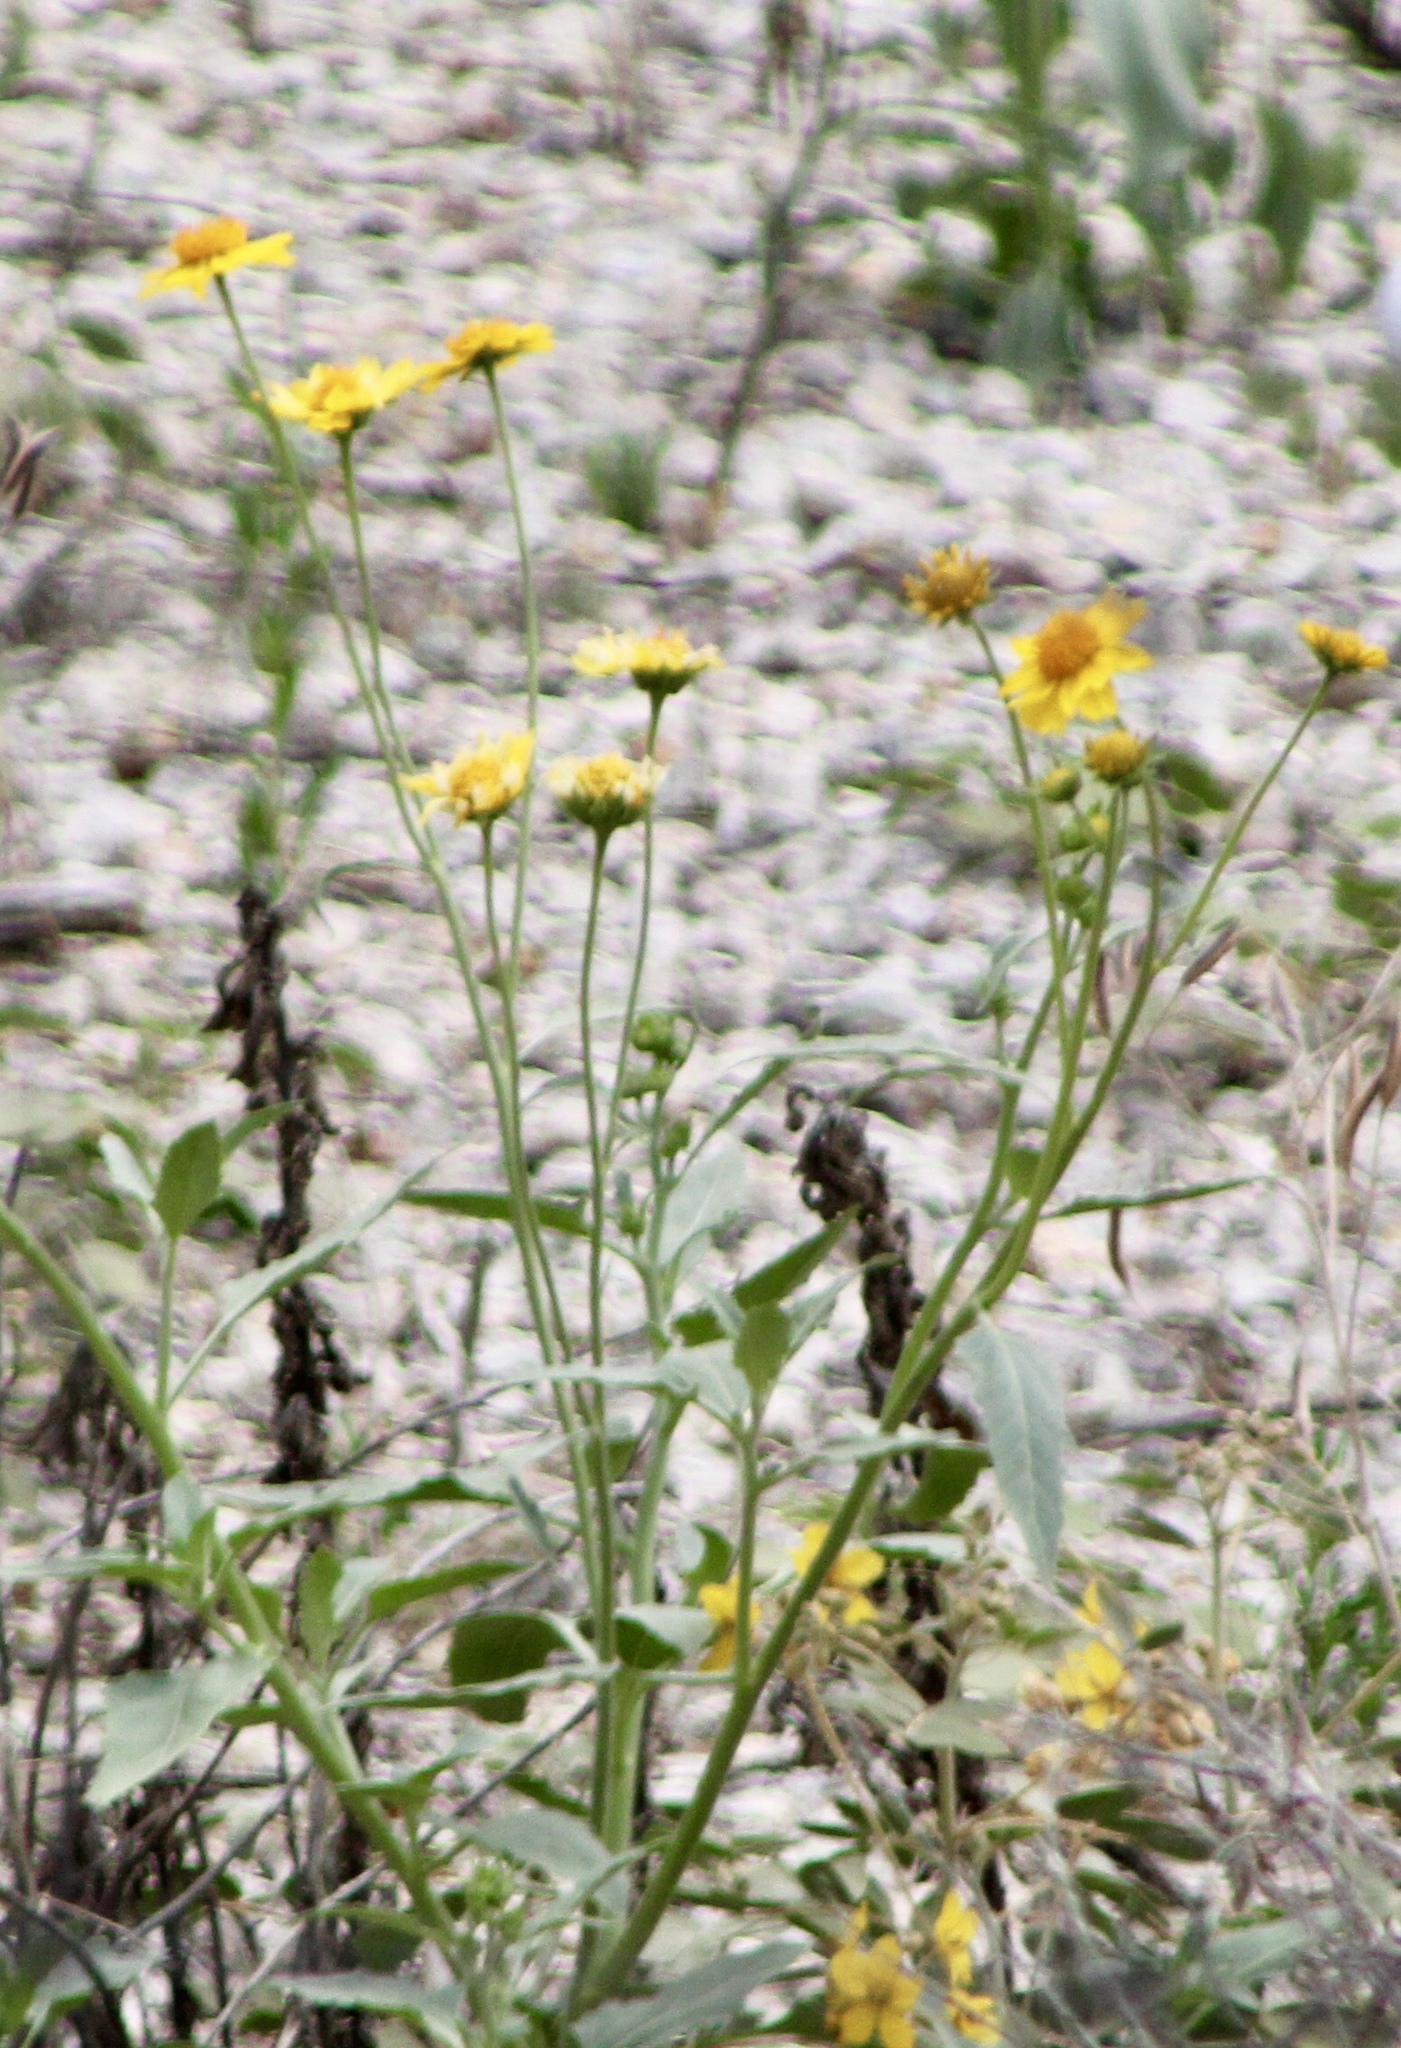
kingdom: Plantae
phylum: Tracheophyta
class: Magnoliopsida
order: Asterales
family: Asteraceae
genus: Verbesina
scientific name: Verbesina encelioides
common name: Golden crownbeard
